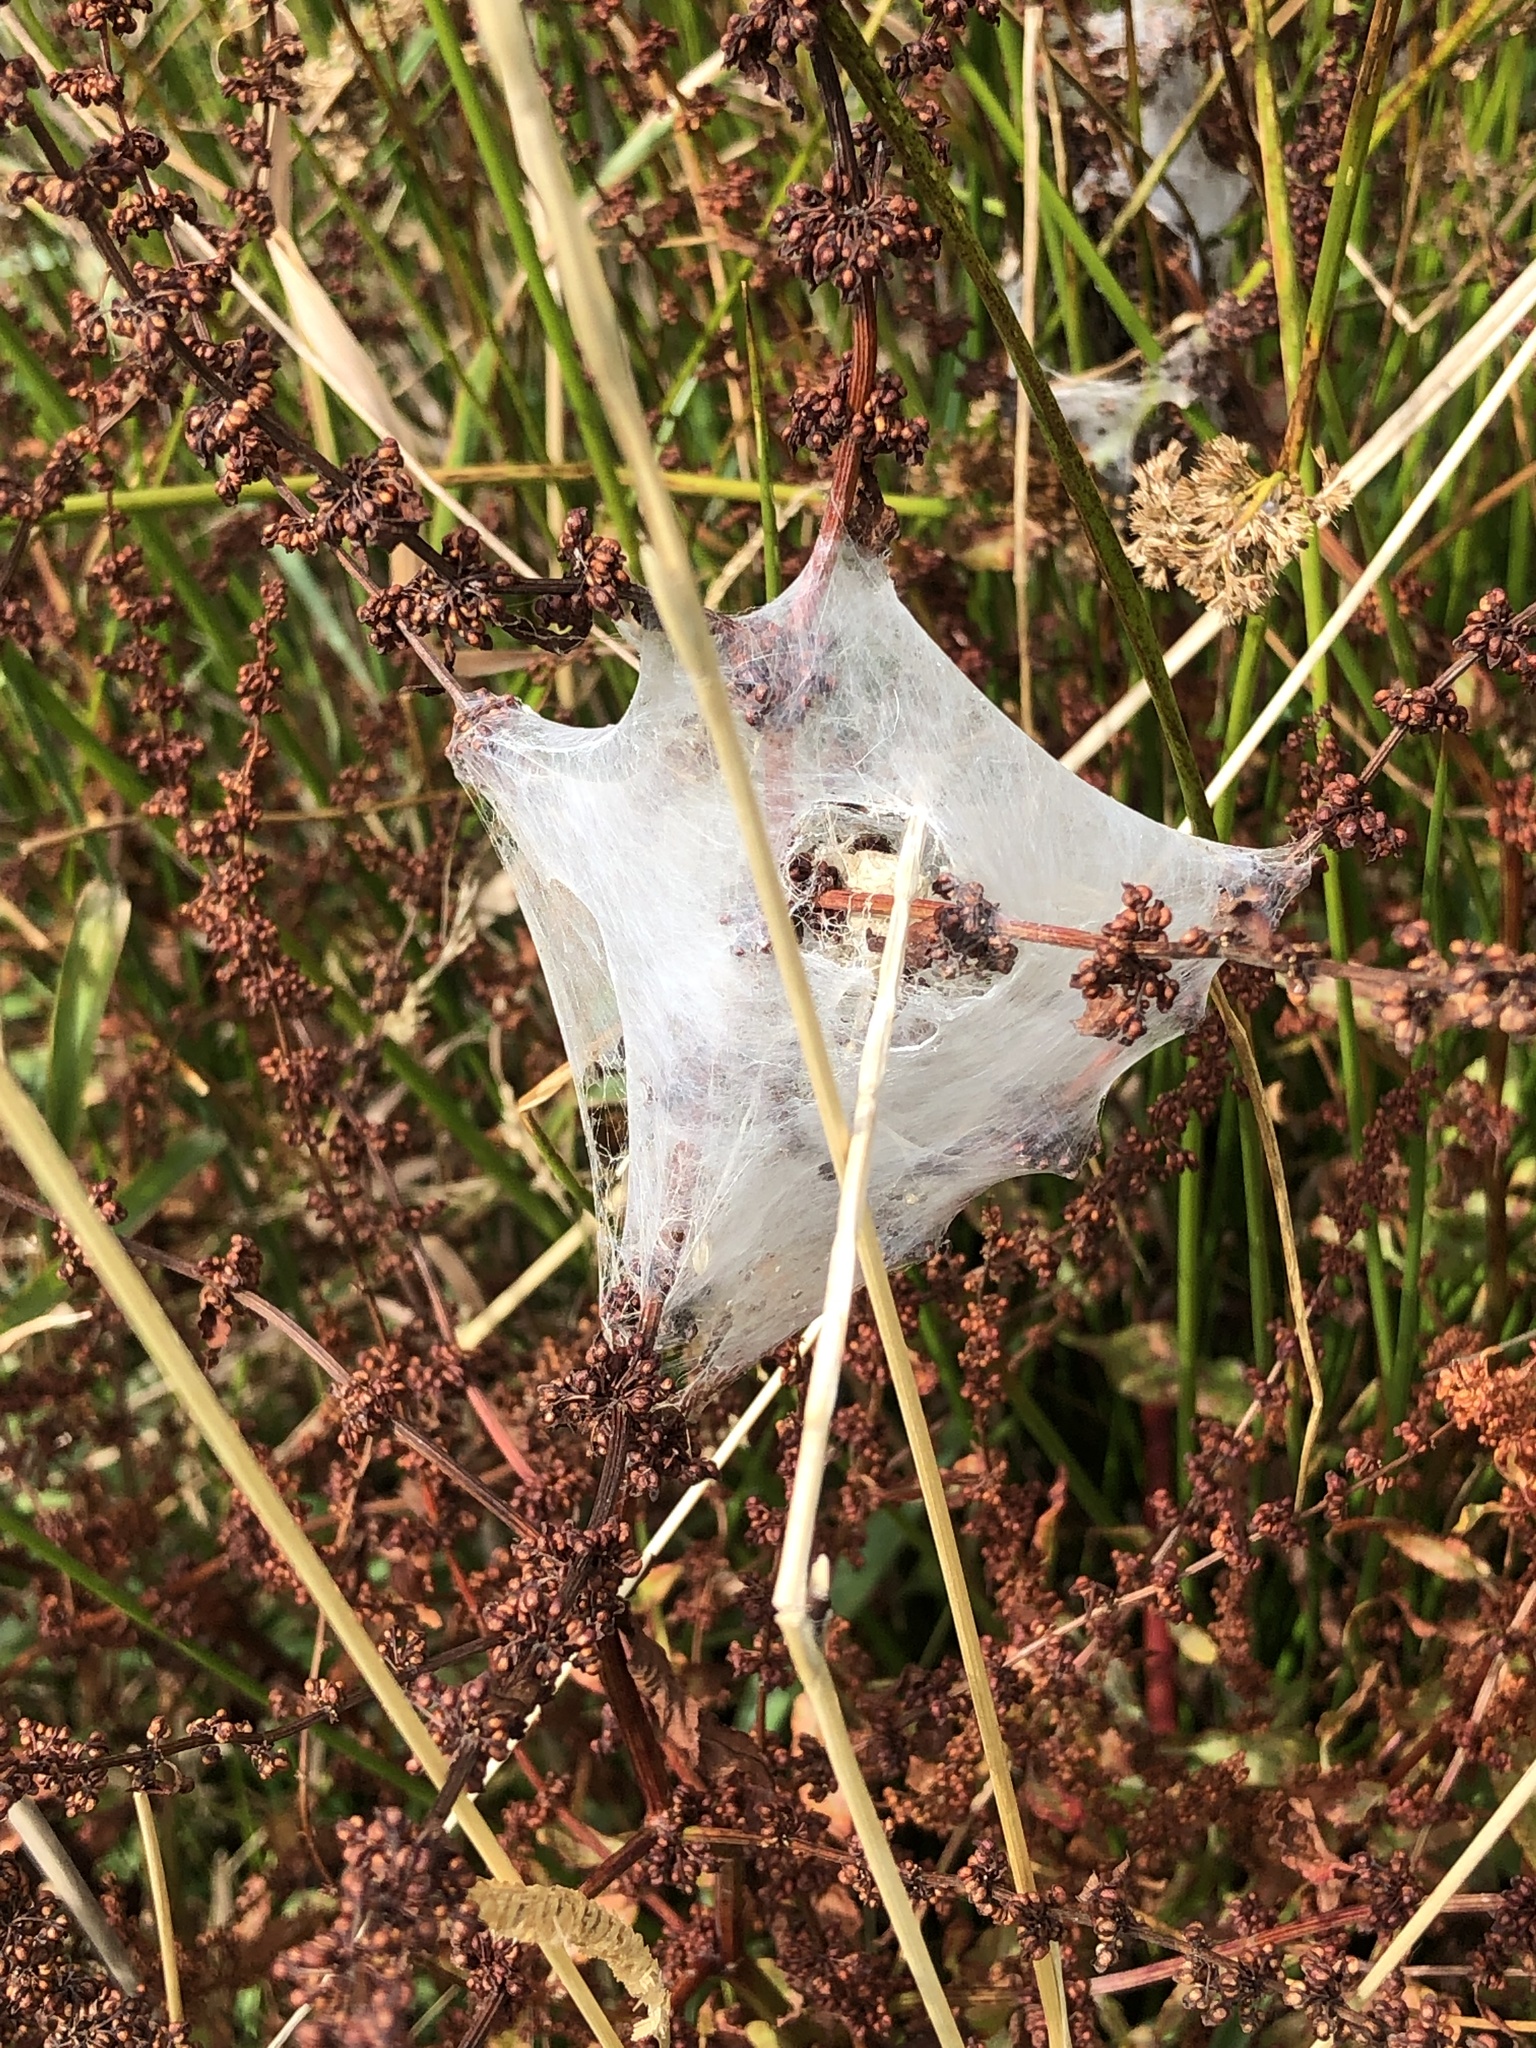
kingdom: Animalia
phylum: Arthropoda
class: Arachnida
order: Araneae
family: Pisauridae
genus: Dolomedes
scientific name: Dolomedes minor
